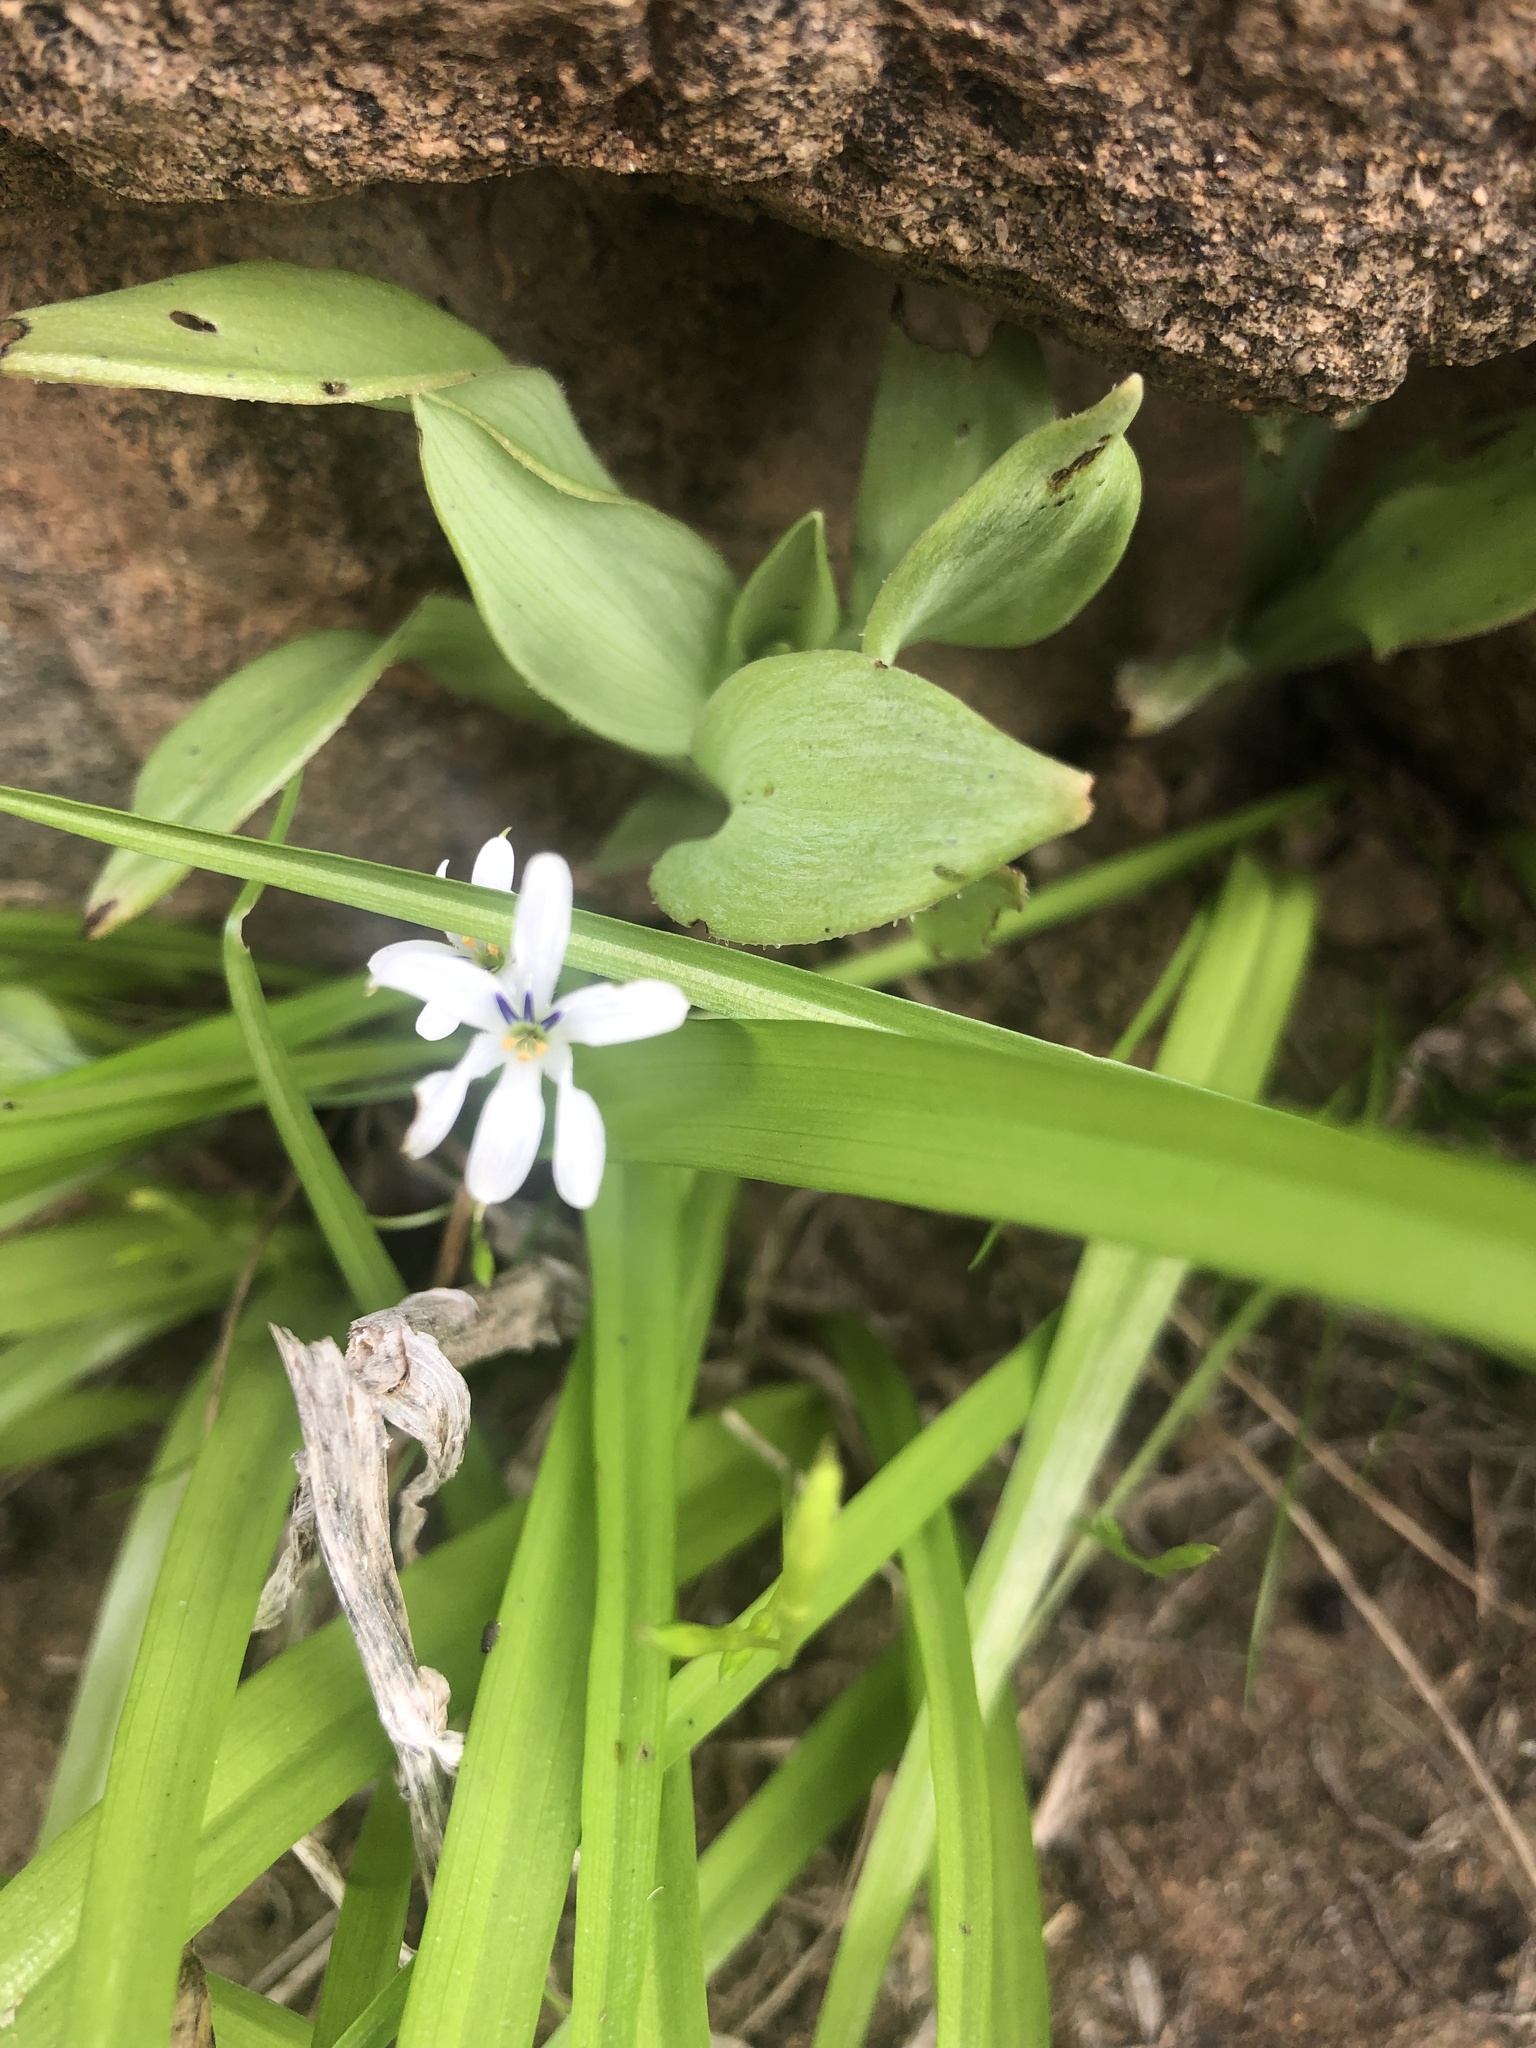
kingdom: Plantae
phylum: Tracheophyta
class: Liliopsida
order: Asparagales
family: Tecophilaeaceae
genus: Tecophilaea
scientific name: Tecophilaea violiflora
